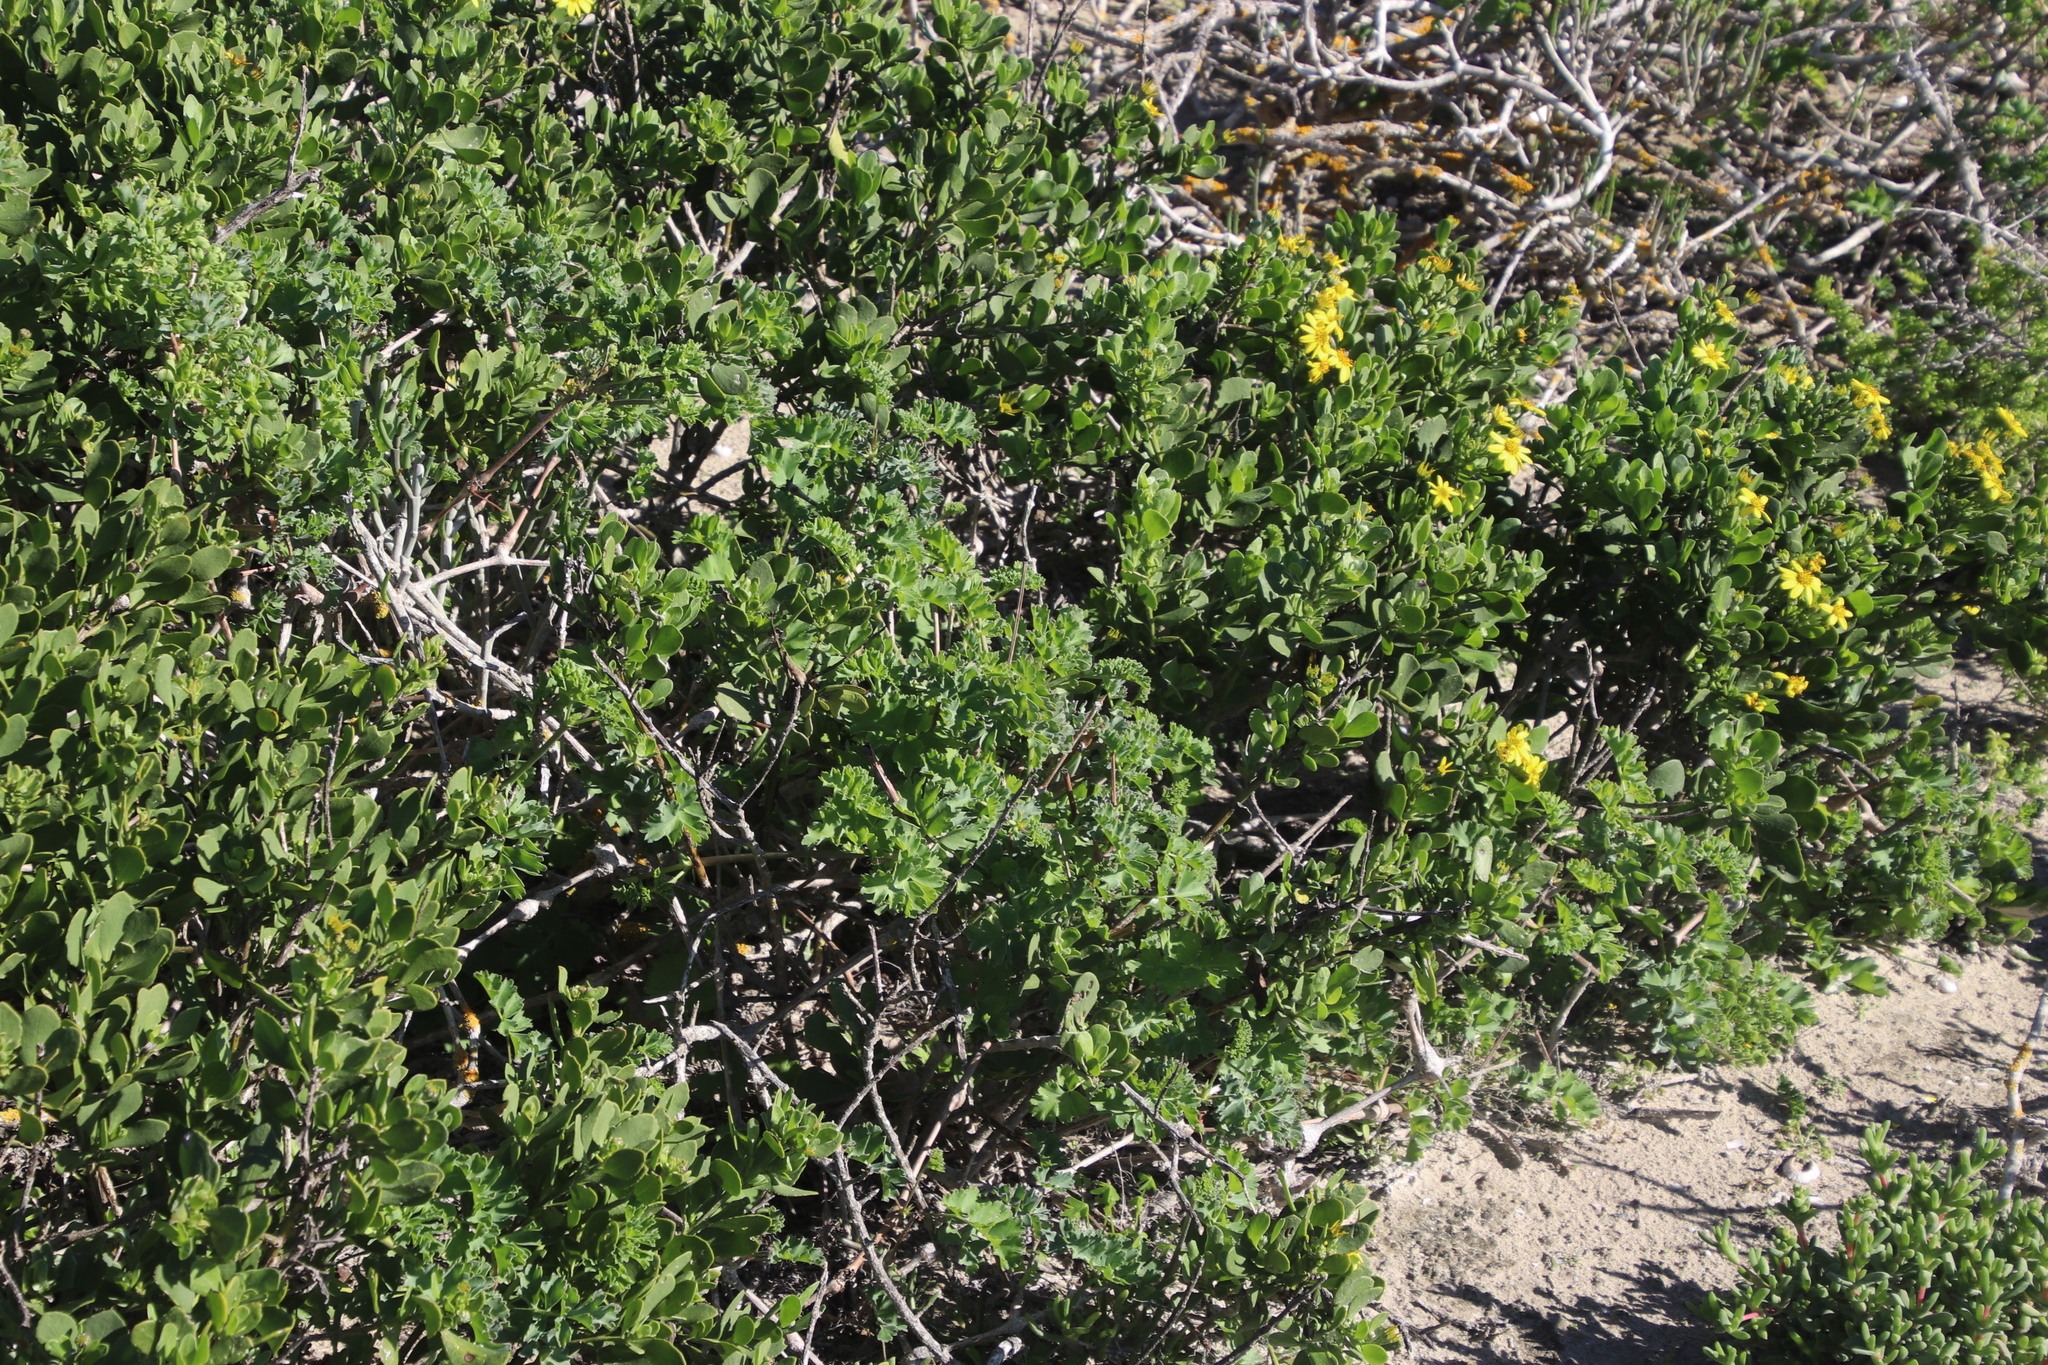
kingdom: Plantae
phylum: Tracheophyta
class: Magnoliopsida
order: Geraniales
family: Geraniaceae
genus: Pelargonium
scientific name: Pelargonium gibbosum
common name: Gouty geranium
